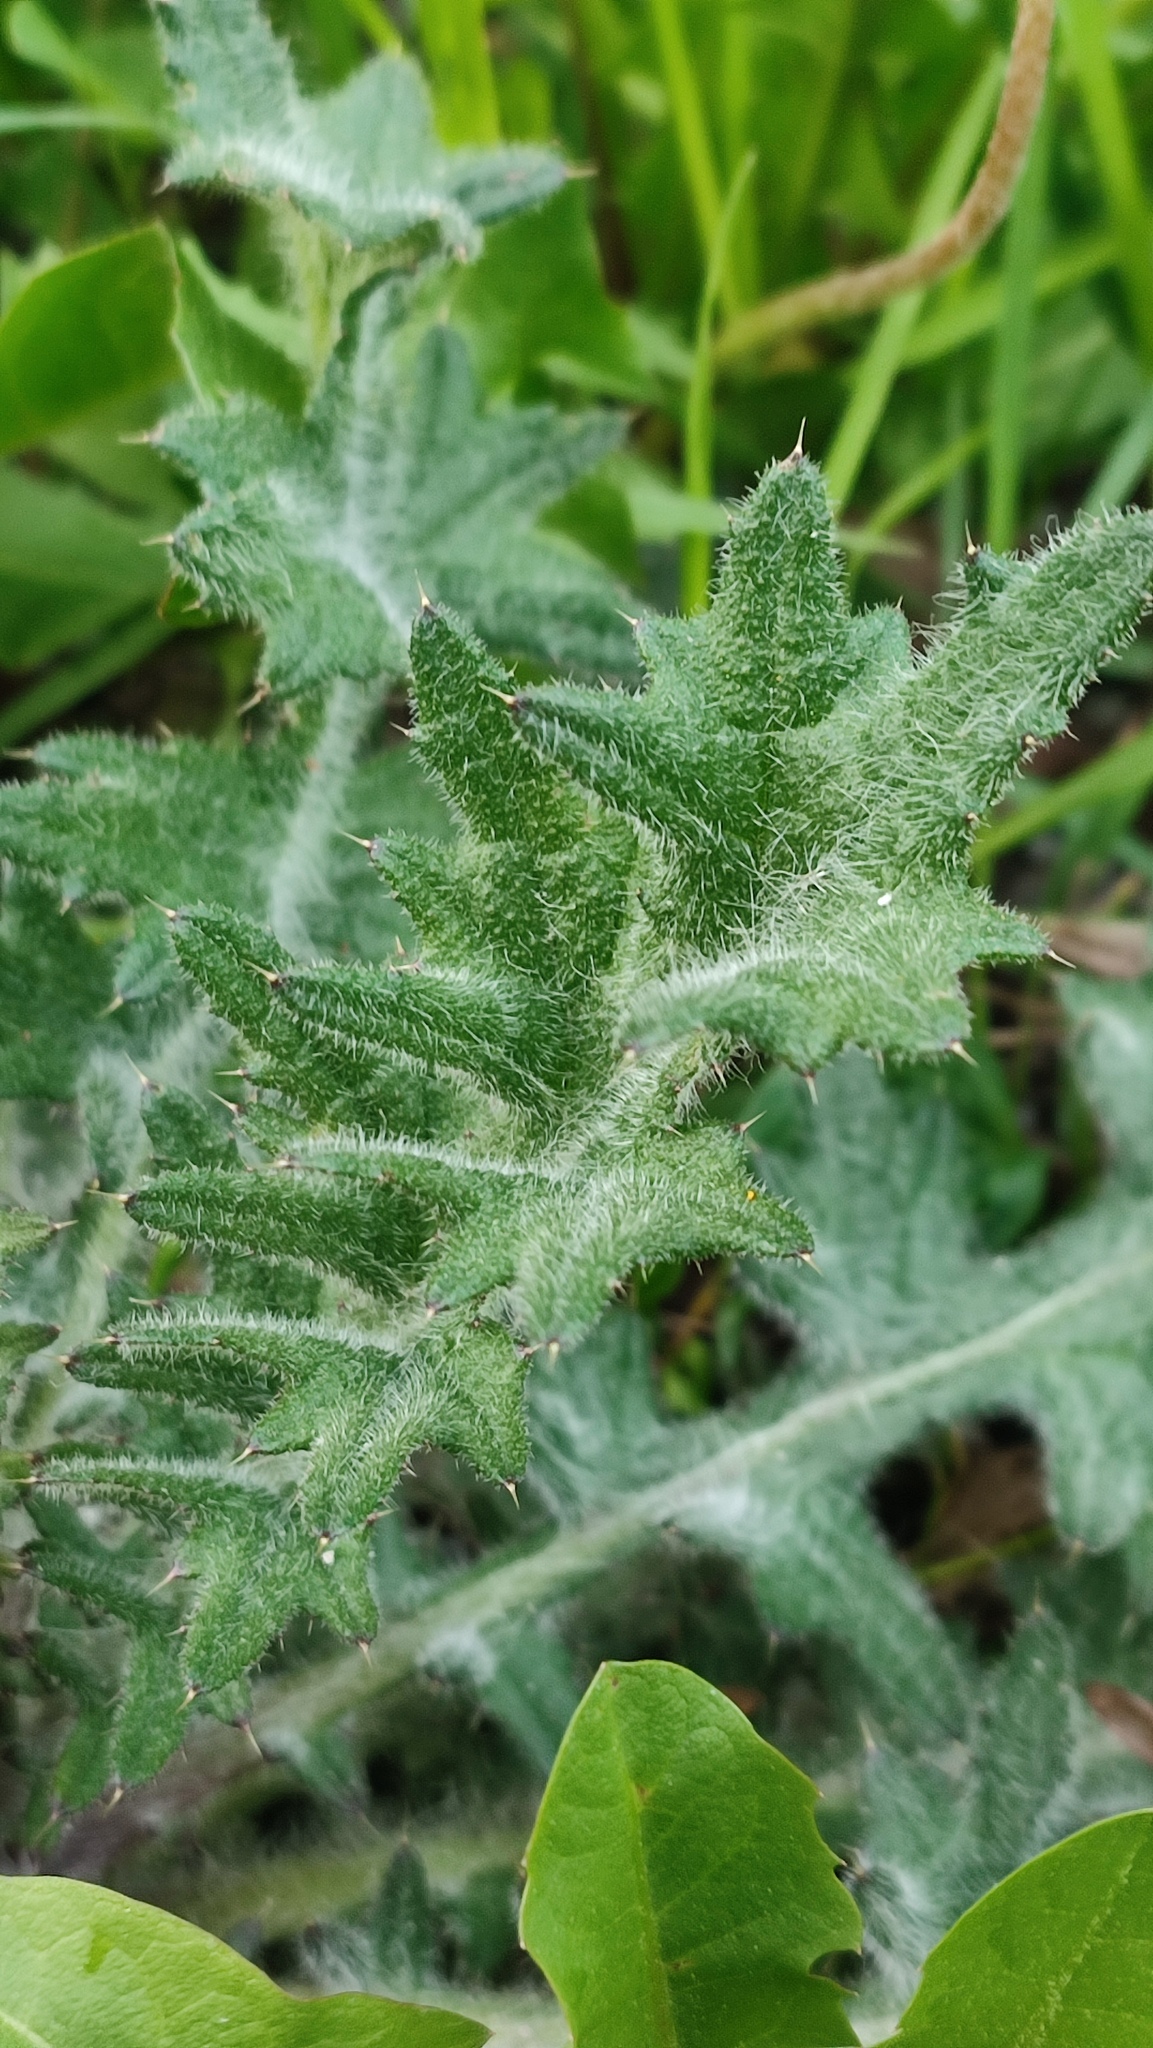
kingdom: Plantae
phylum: Tracheophyta
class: Magnoliopsida
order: Asterales
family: Asteraceae
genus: Cirsium
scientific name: Cirsium vulgare
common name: Bull thistle
